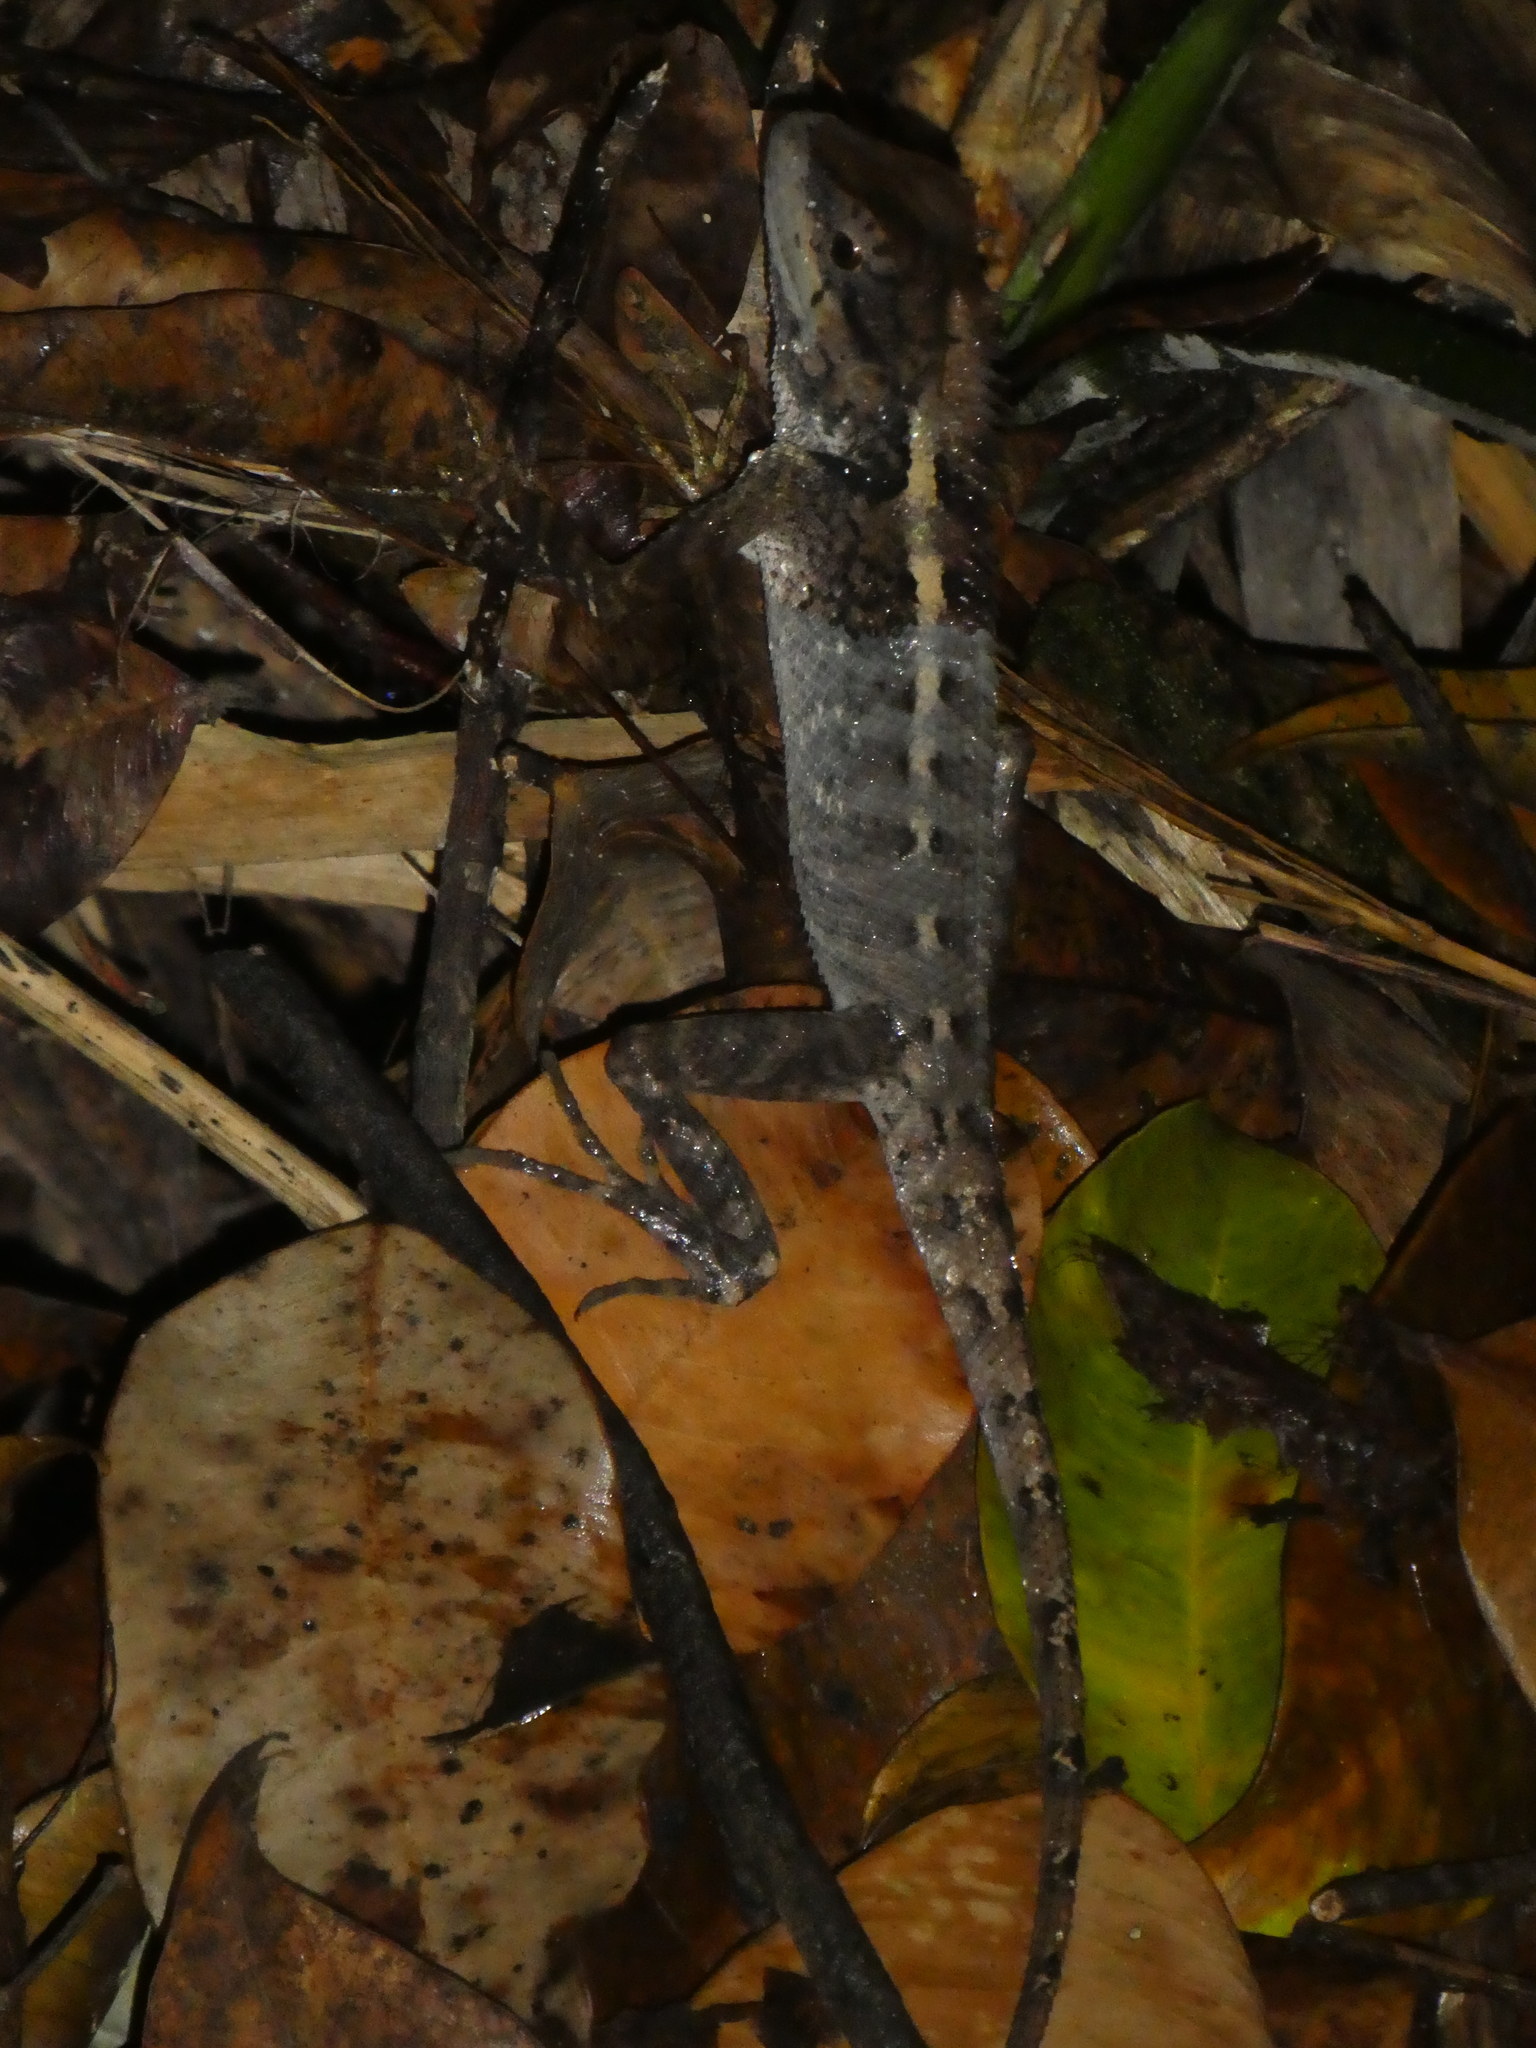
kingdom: Animalia
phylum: Chordata
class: Squamata
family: Agamidae
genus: Calotes
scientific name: Calotes emma
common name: Thailand bloodsucker
